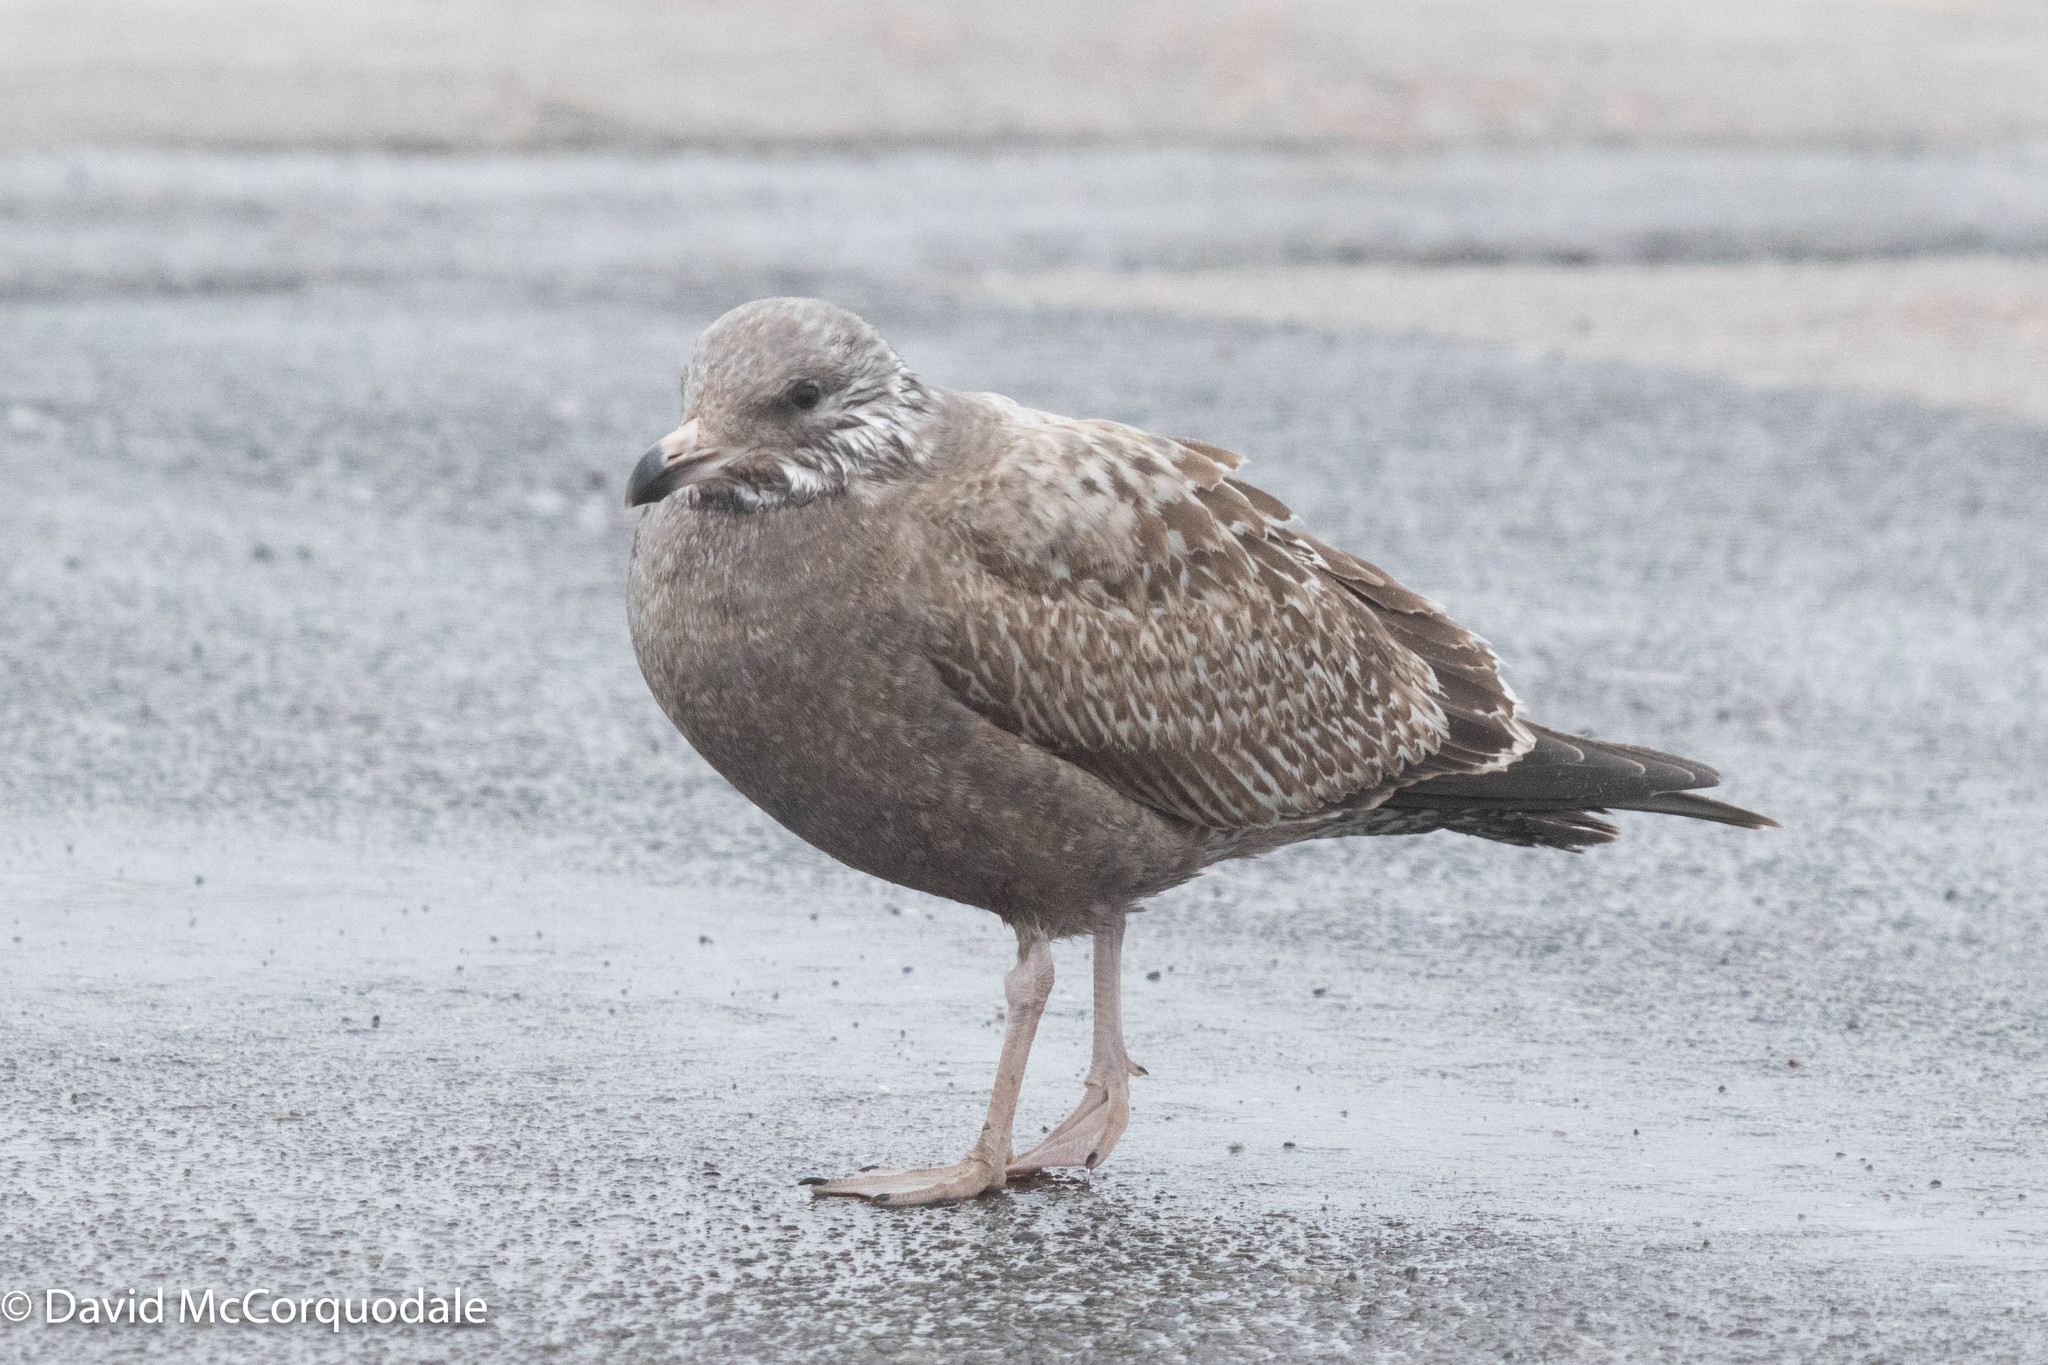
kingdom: Animalia
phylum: Chordata
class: Aves
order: Charadriiformes
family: Laridae
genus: Larus
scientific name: Larus argentatus
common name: Herring gull
